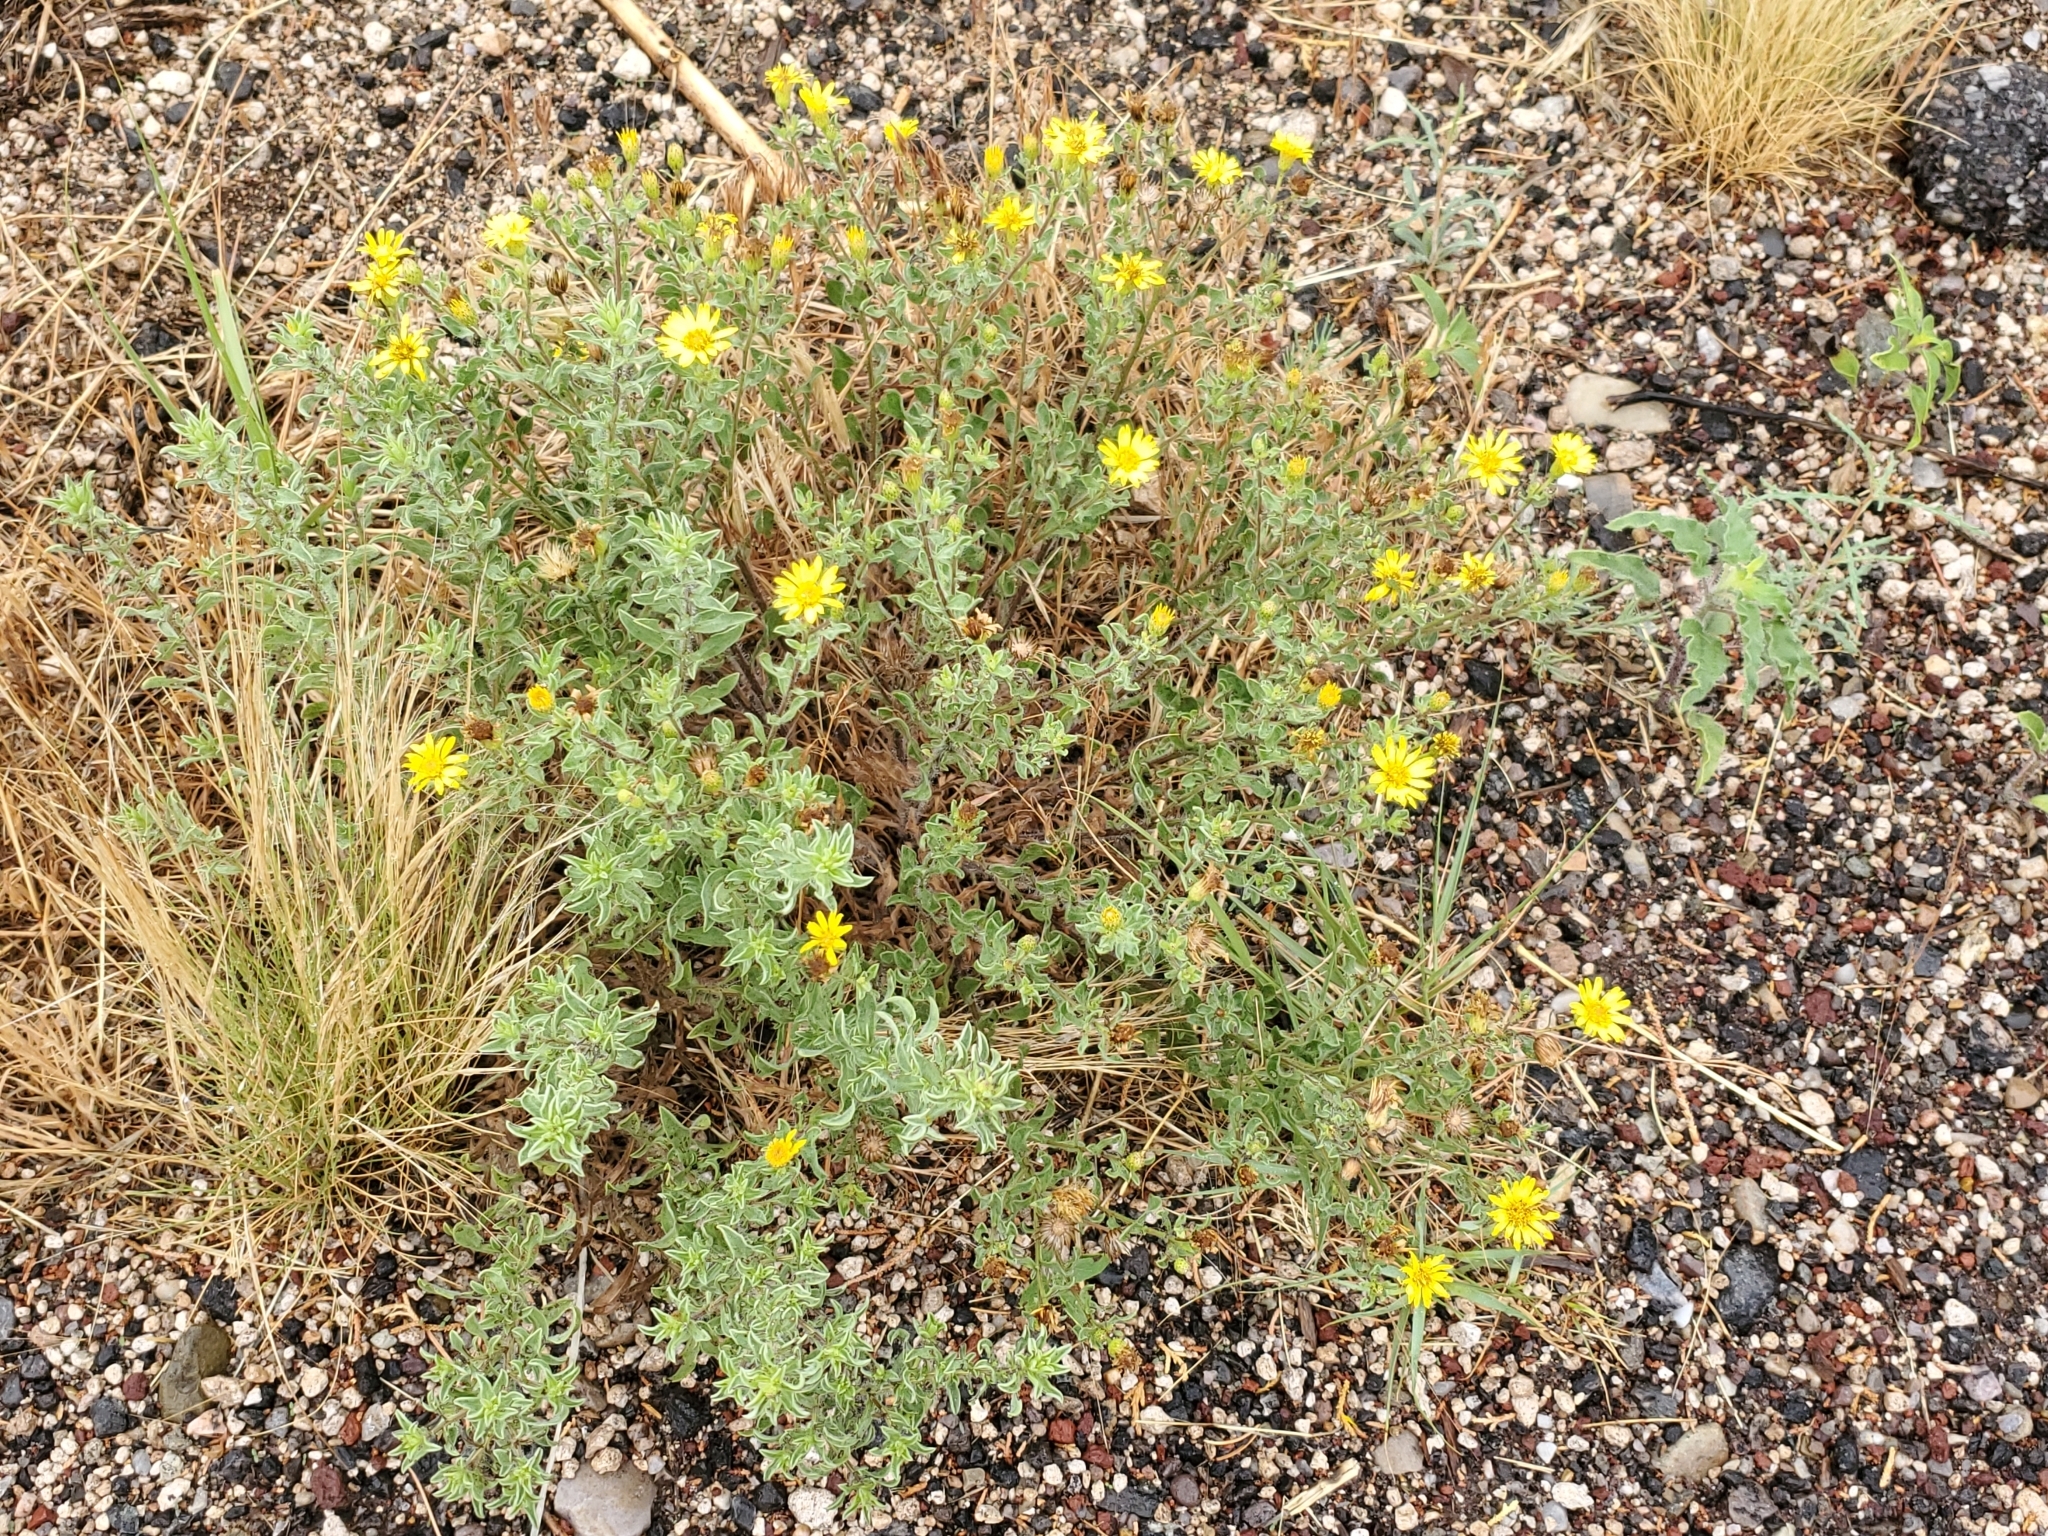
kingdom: Plantae
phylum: Tracheophyta
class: Magnoliopsida
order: Asterales
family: Asteraceae
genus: Heterotheca
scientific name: Heterotheca hirsutissima
